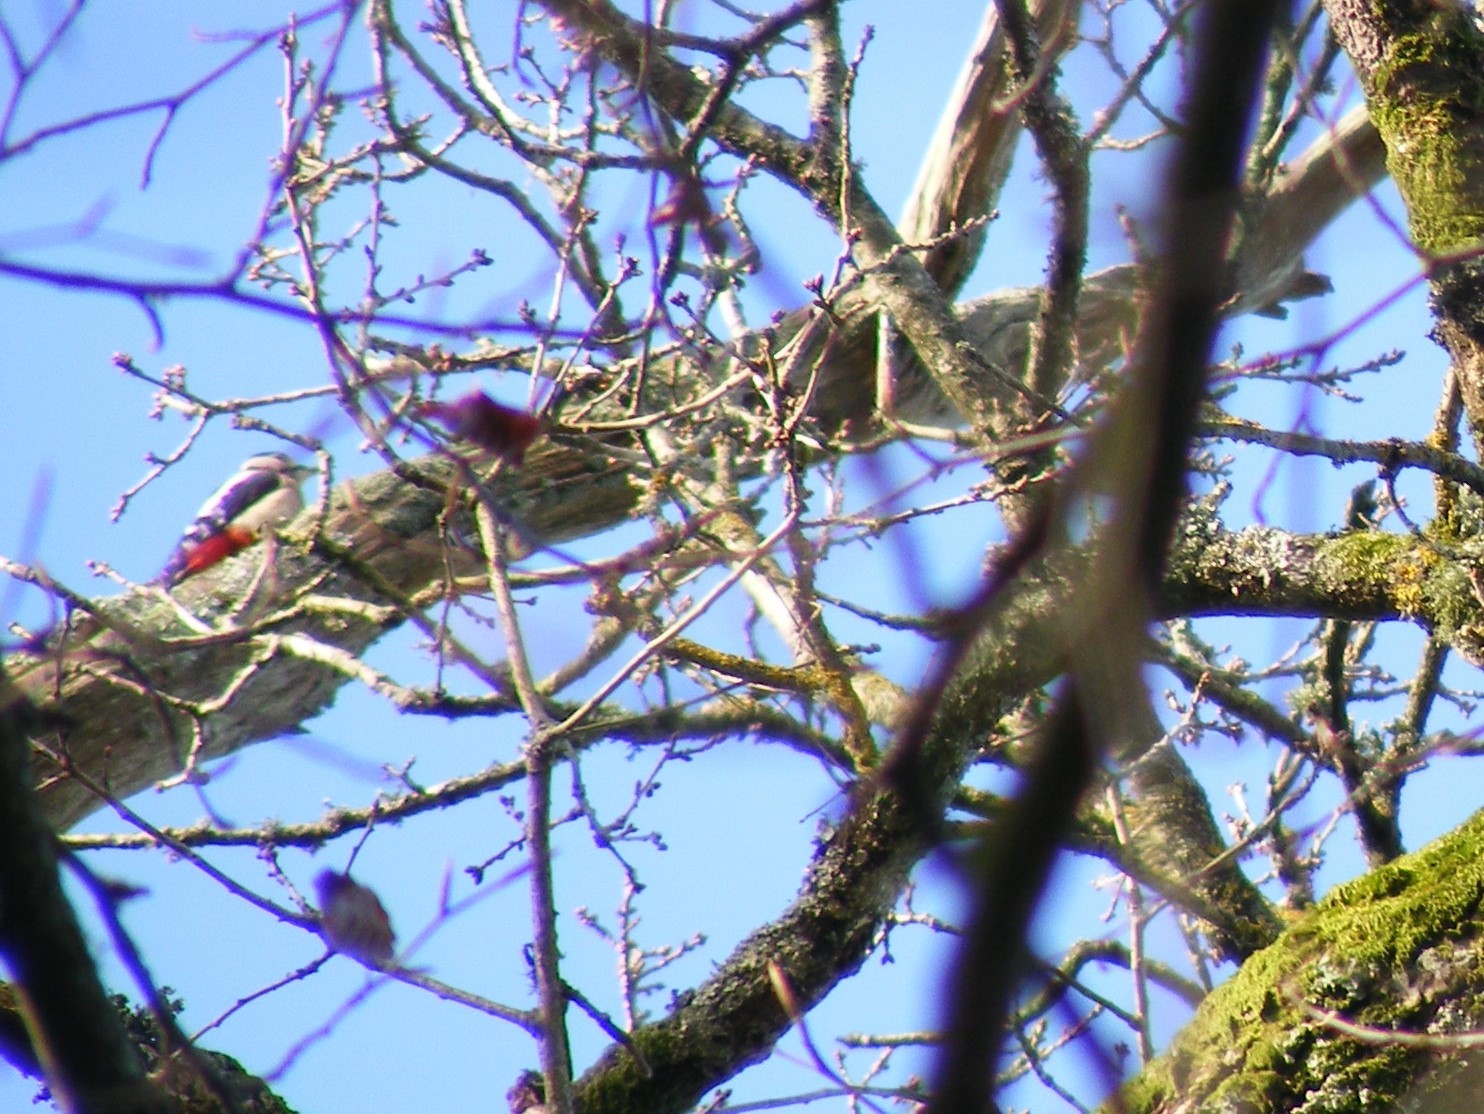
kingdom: Animalia
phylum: Chordata
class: Aves
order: Piciformes
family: Picidae
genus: Dendrocopos
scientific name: Dendrocopos major
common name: Great spotted woodpecker
